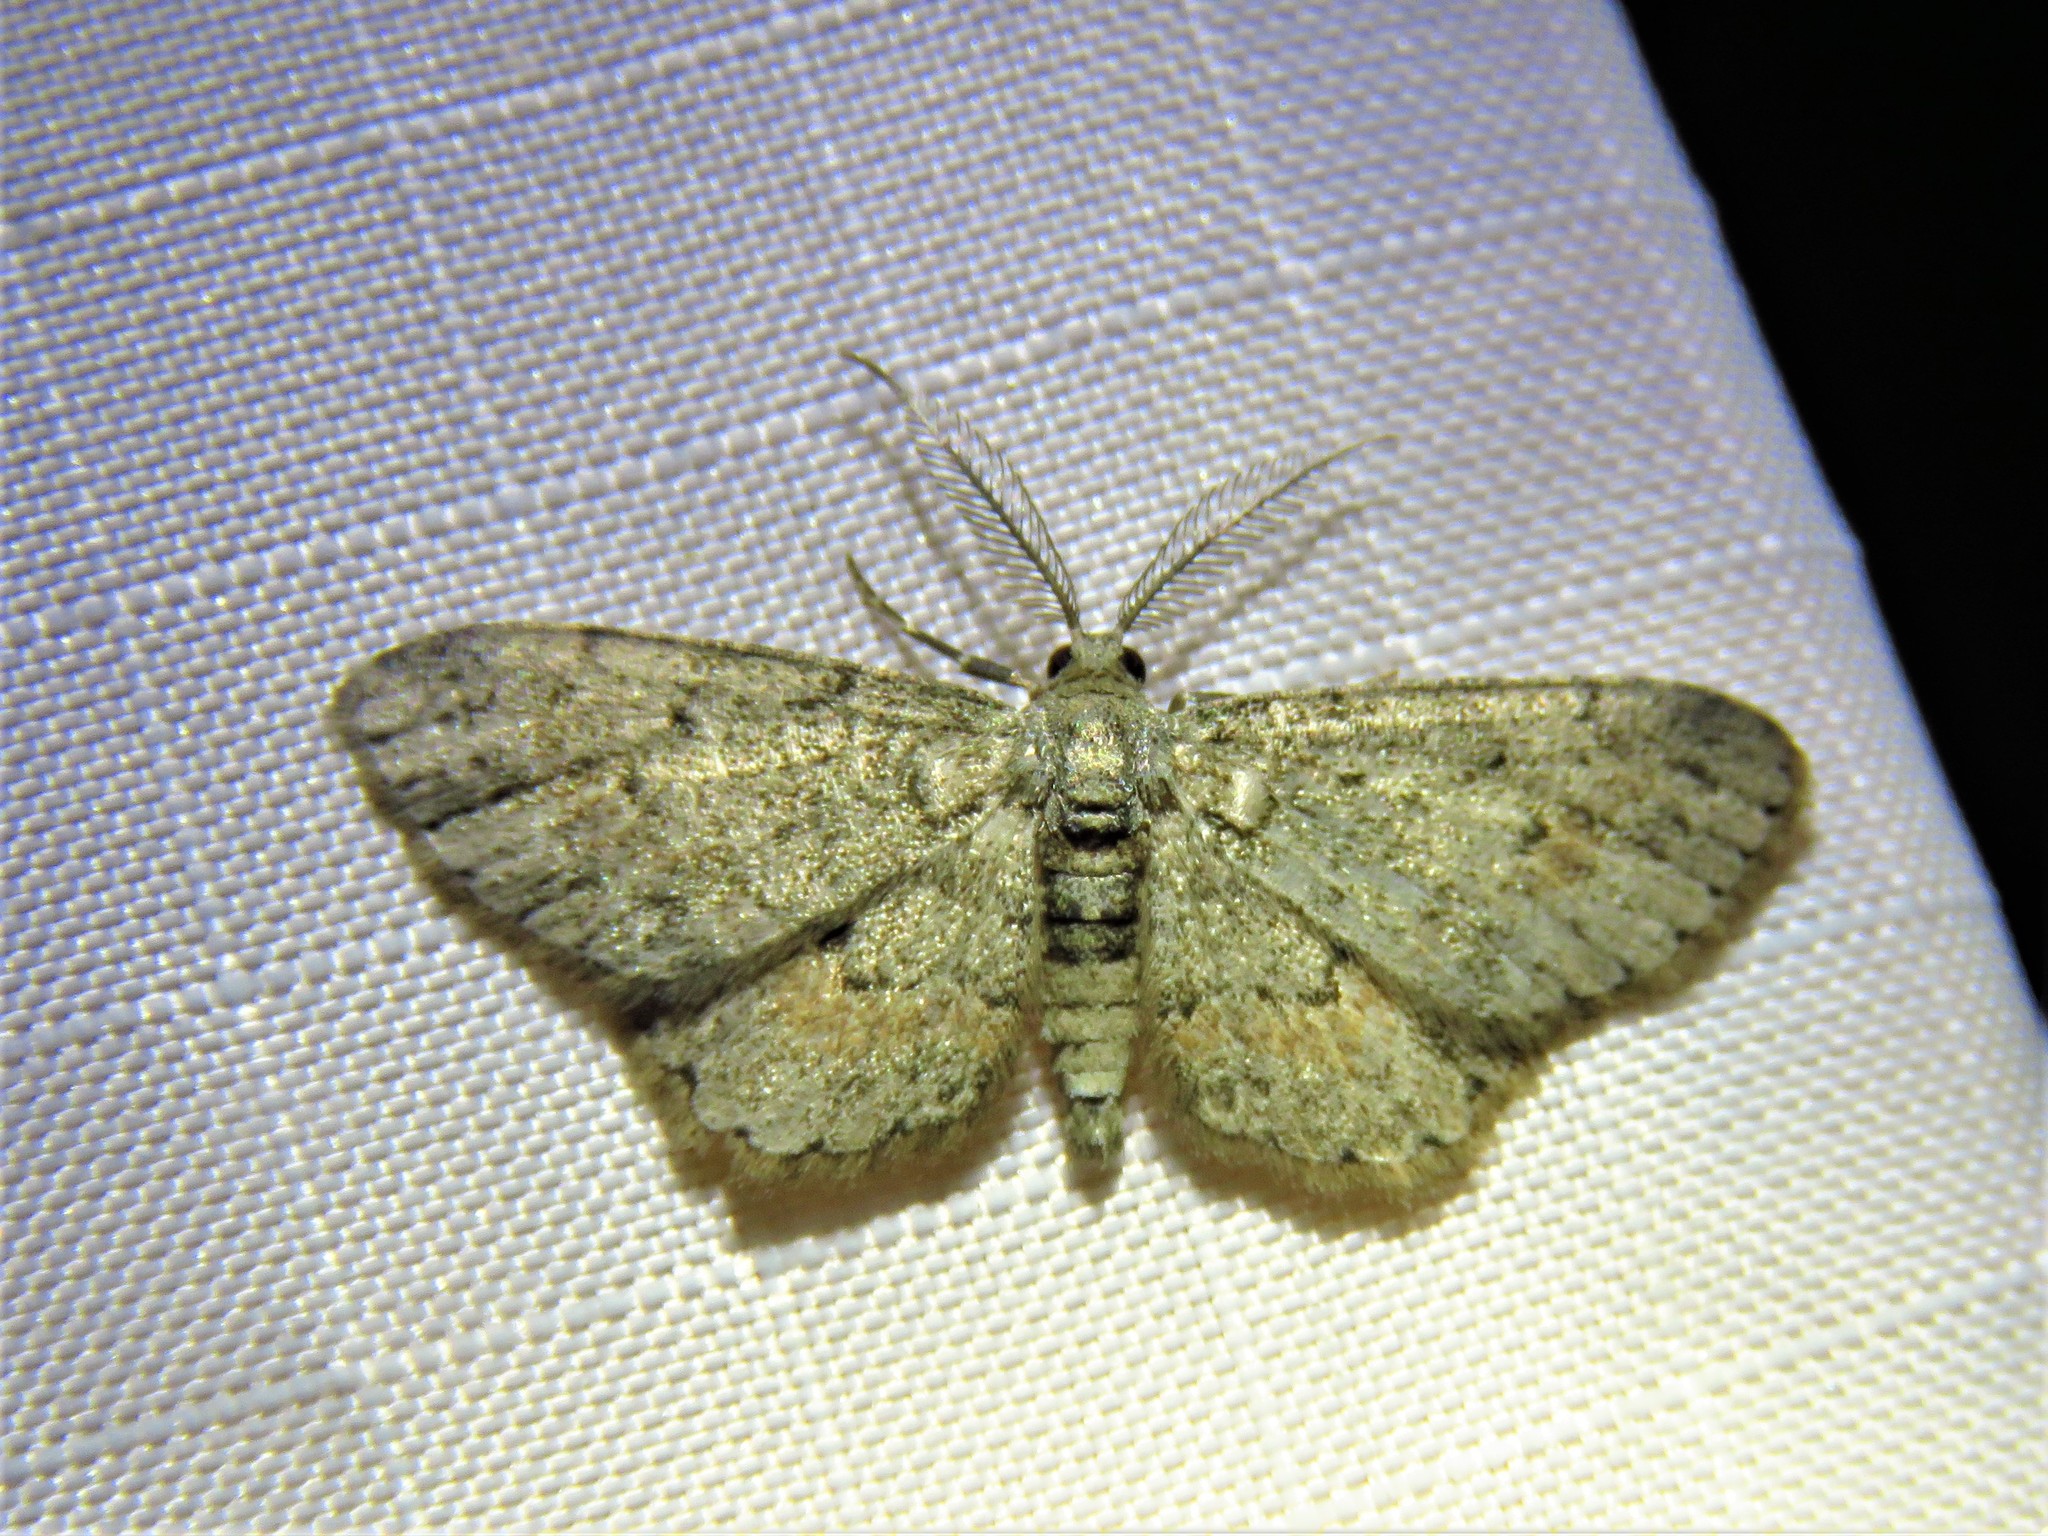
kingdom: Animalia
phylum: Arthropoda
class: Insecta
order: Lepidoptera
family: Geometridae
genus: Glenoides
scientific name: Glenoides texanaria
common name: Texas gray
